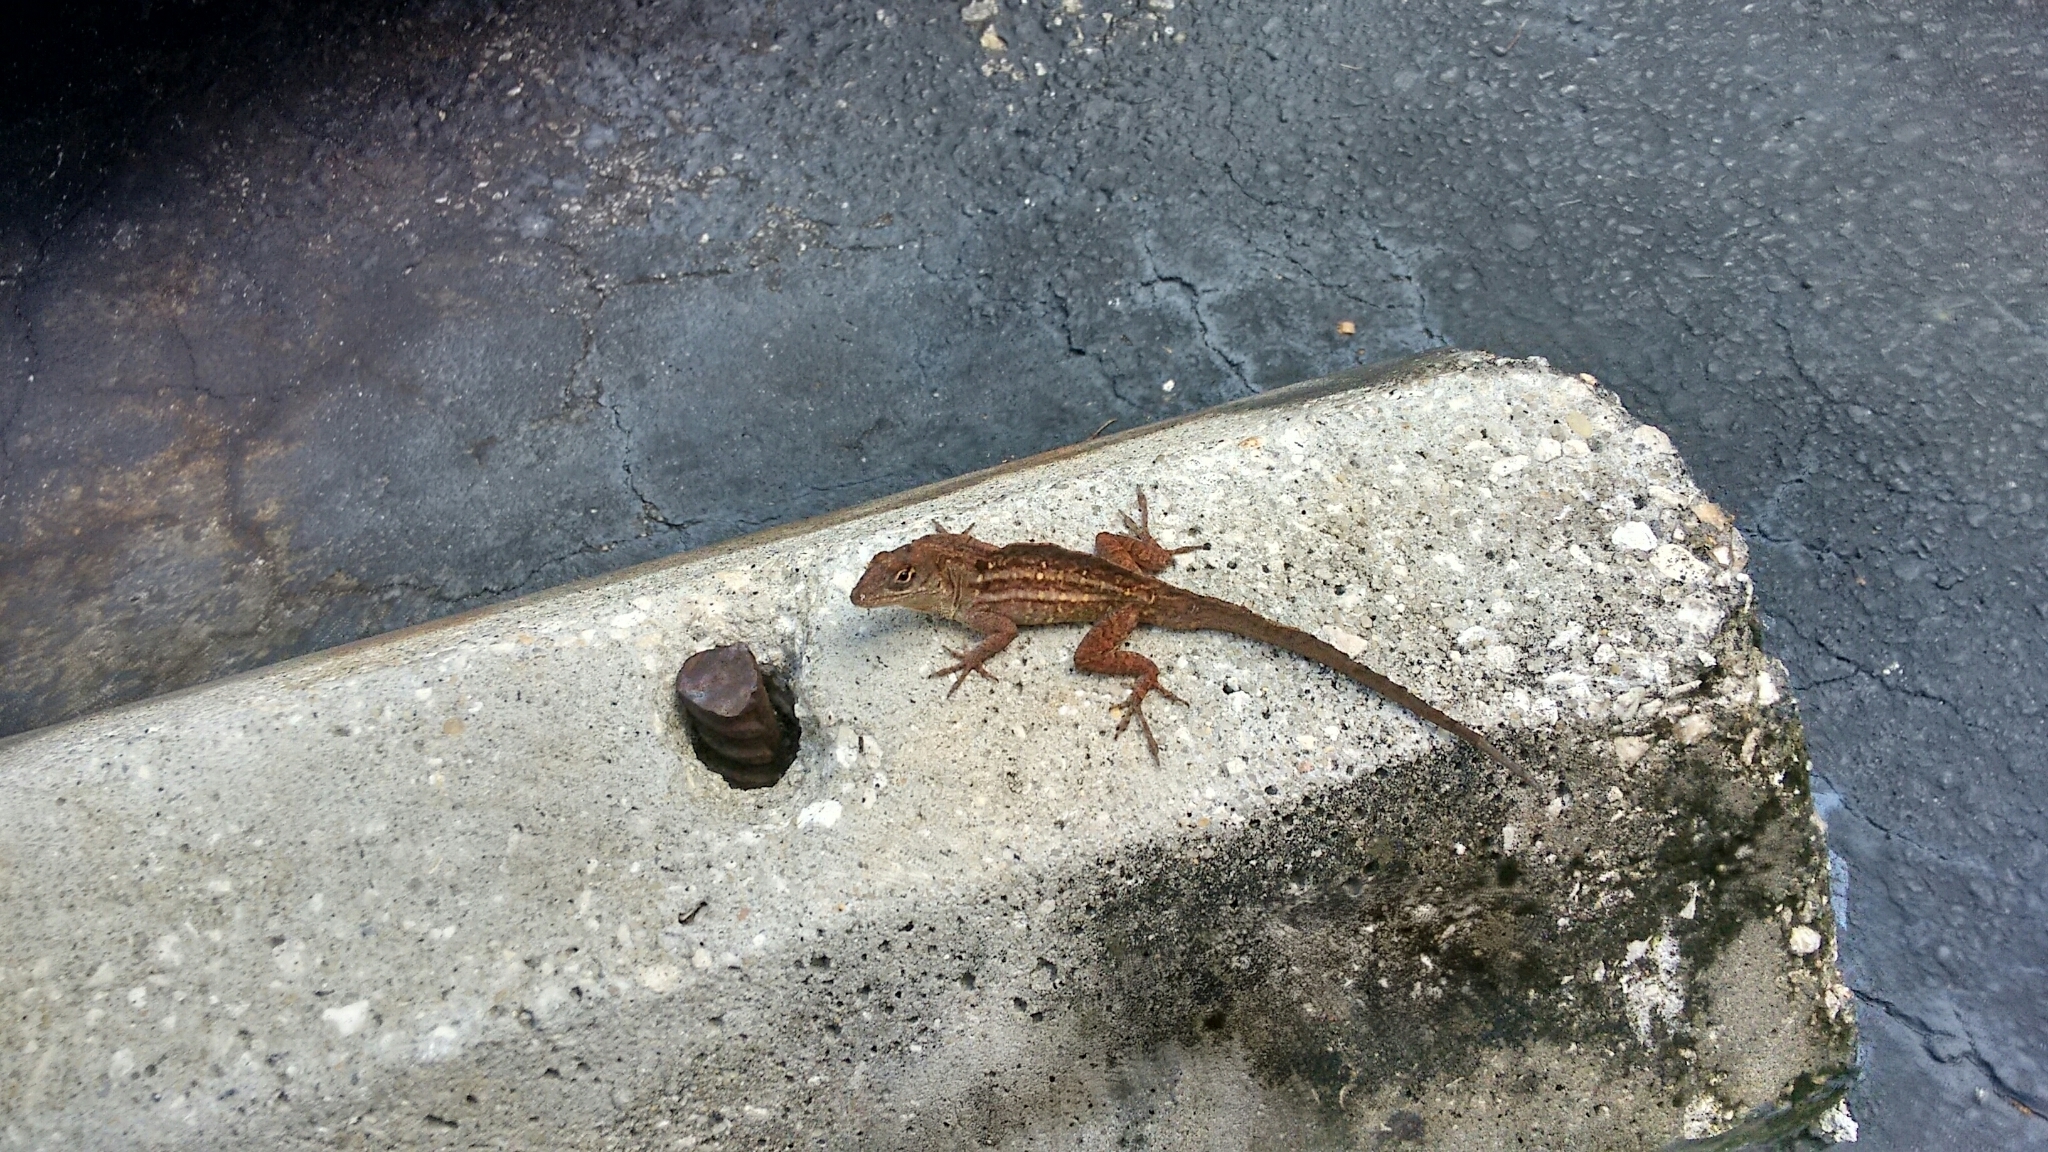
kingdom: Animalia
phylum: Chordata
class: Squamata
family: Dactyloidae
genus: Anolis
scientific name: Anolis sagrei
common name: Brown anole
